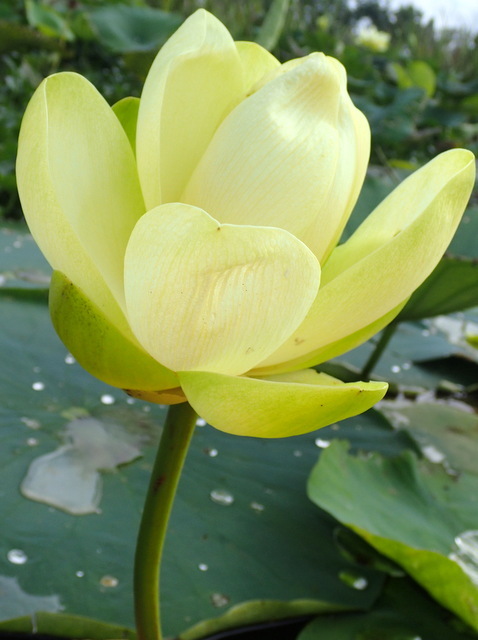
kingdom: Plantae
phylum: Tracheophyta
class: Magnoliopsida
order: Proteales
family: Nelumbonaceae
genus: Nelumbo
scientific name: Nelumbo lutea
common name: American lotus
